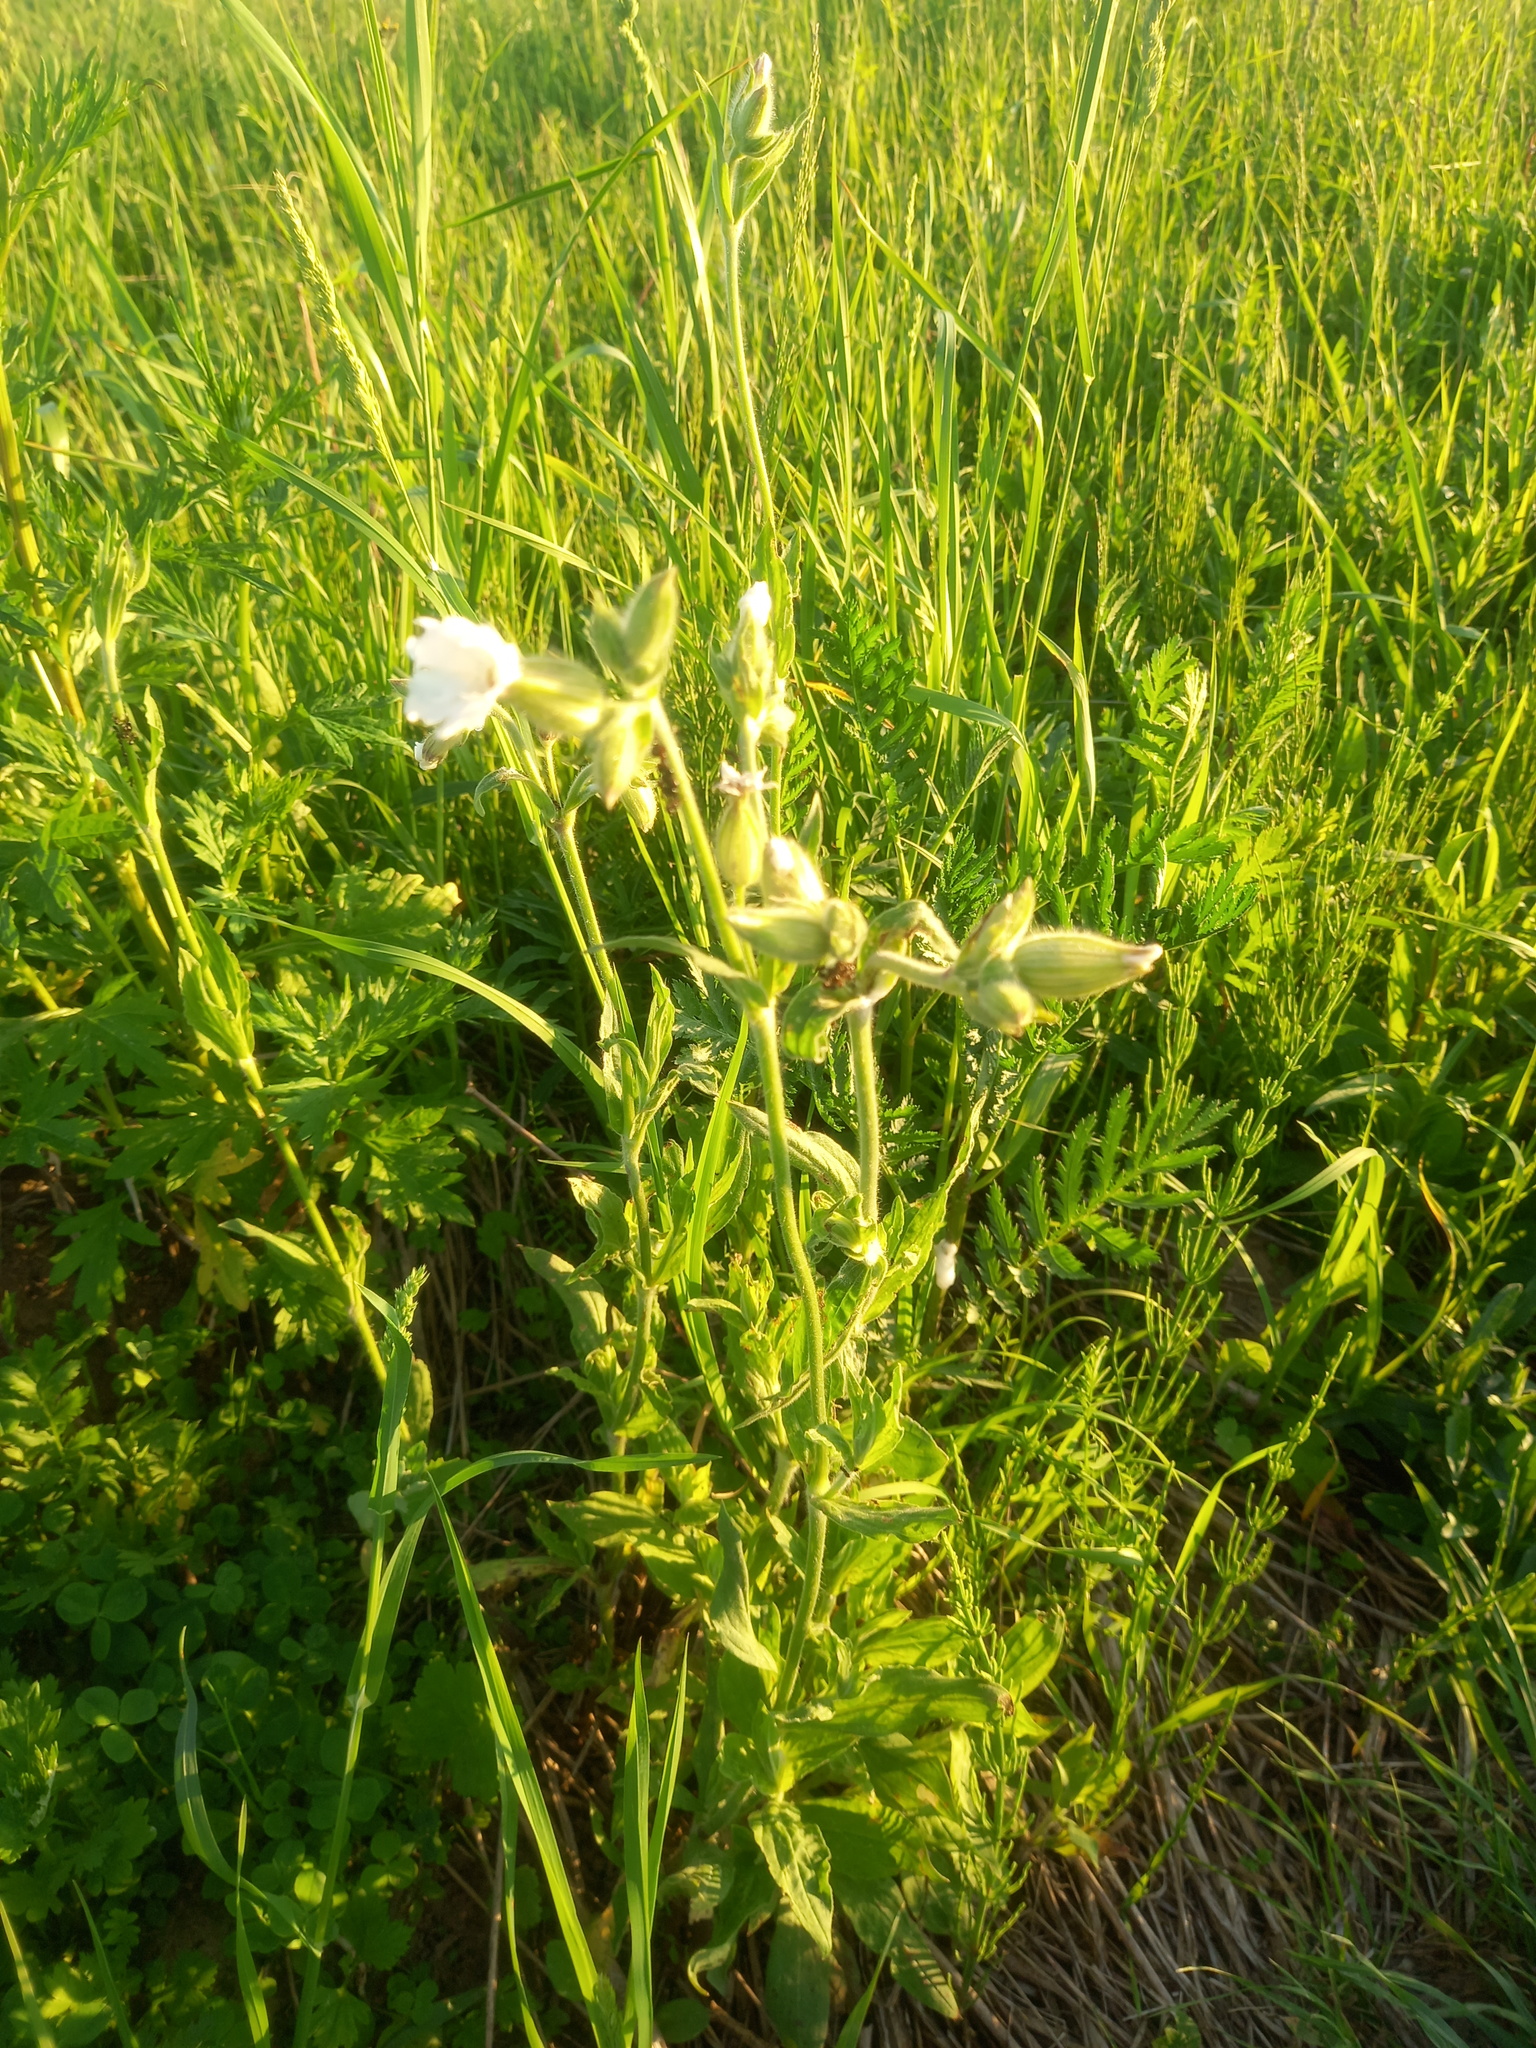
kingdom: Plantae
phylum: Tracheophyta
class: Magnoliopsida
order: Caryophyllales
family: Caryophyllaceae
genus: Silene
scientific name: Silene latifolia
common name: White campion
